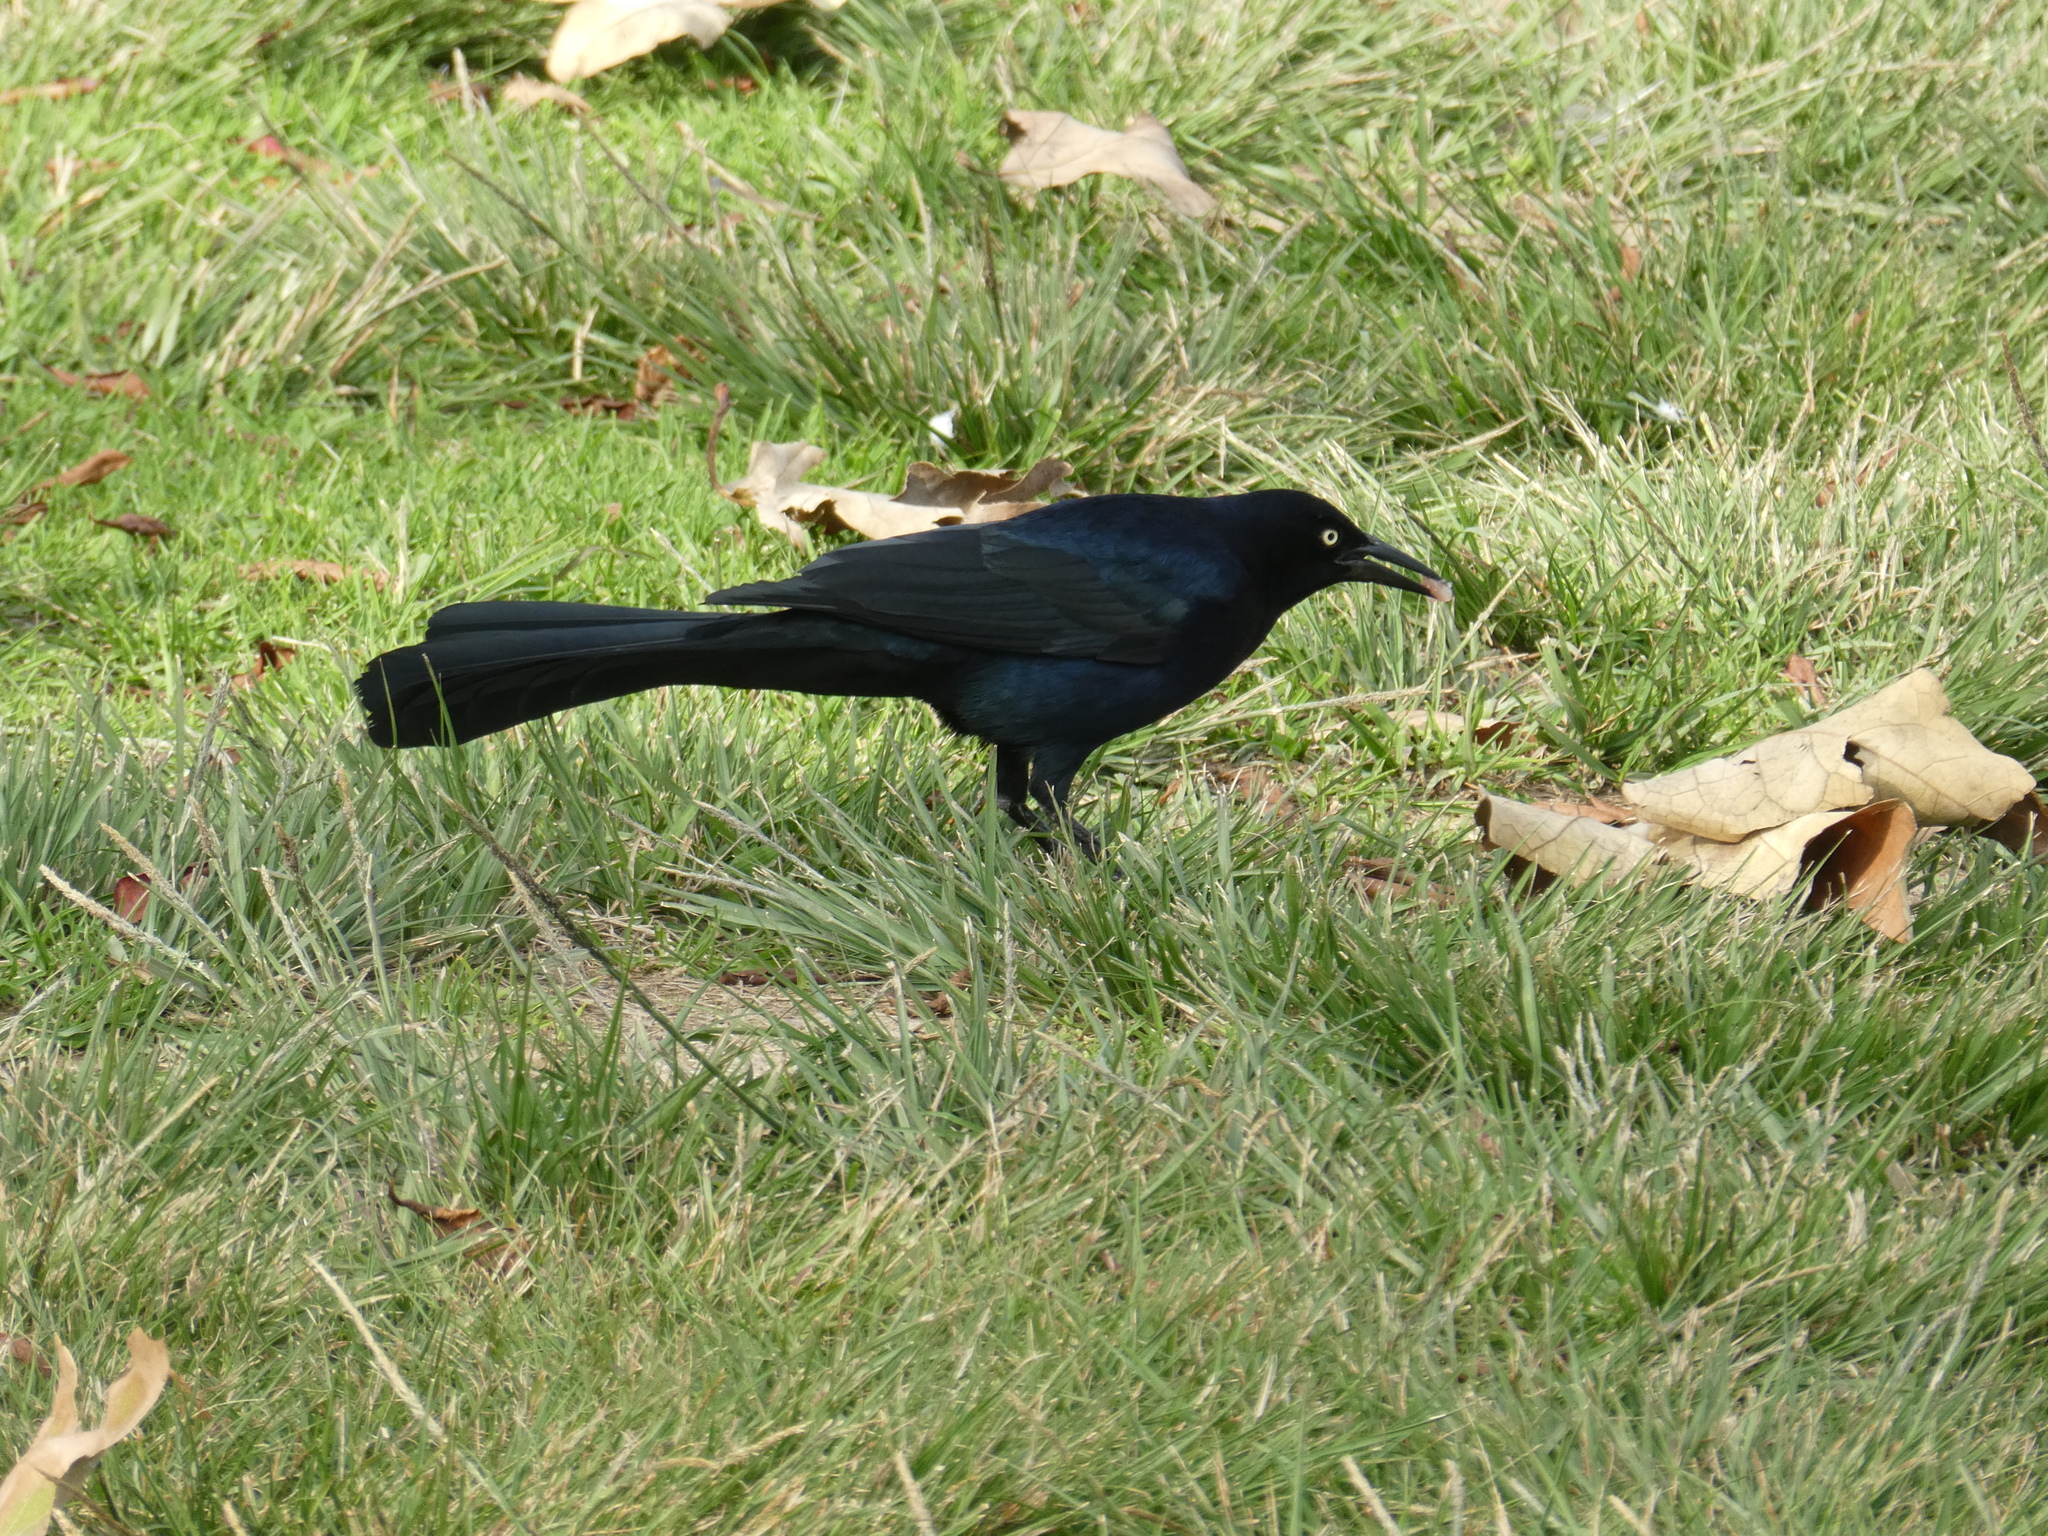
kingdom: Animalia
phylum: Chordata
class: Aves
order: Passeriformes
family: Icteridae
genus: Quiscalus
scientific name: Quiscalus mexicanus
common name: Great-tailed grackle
